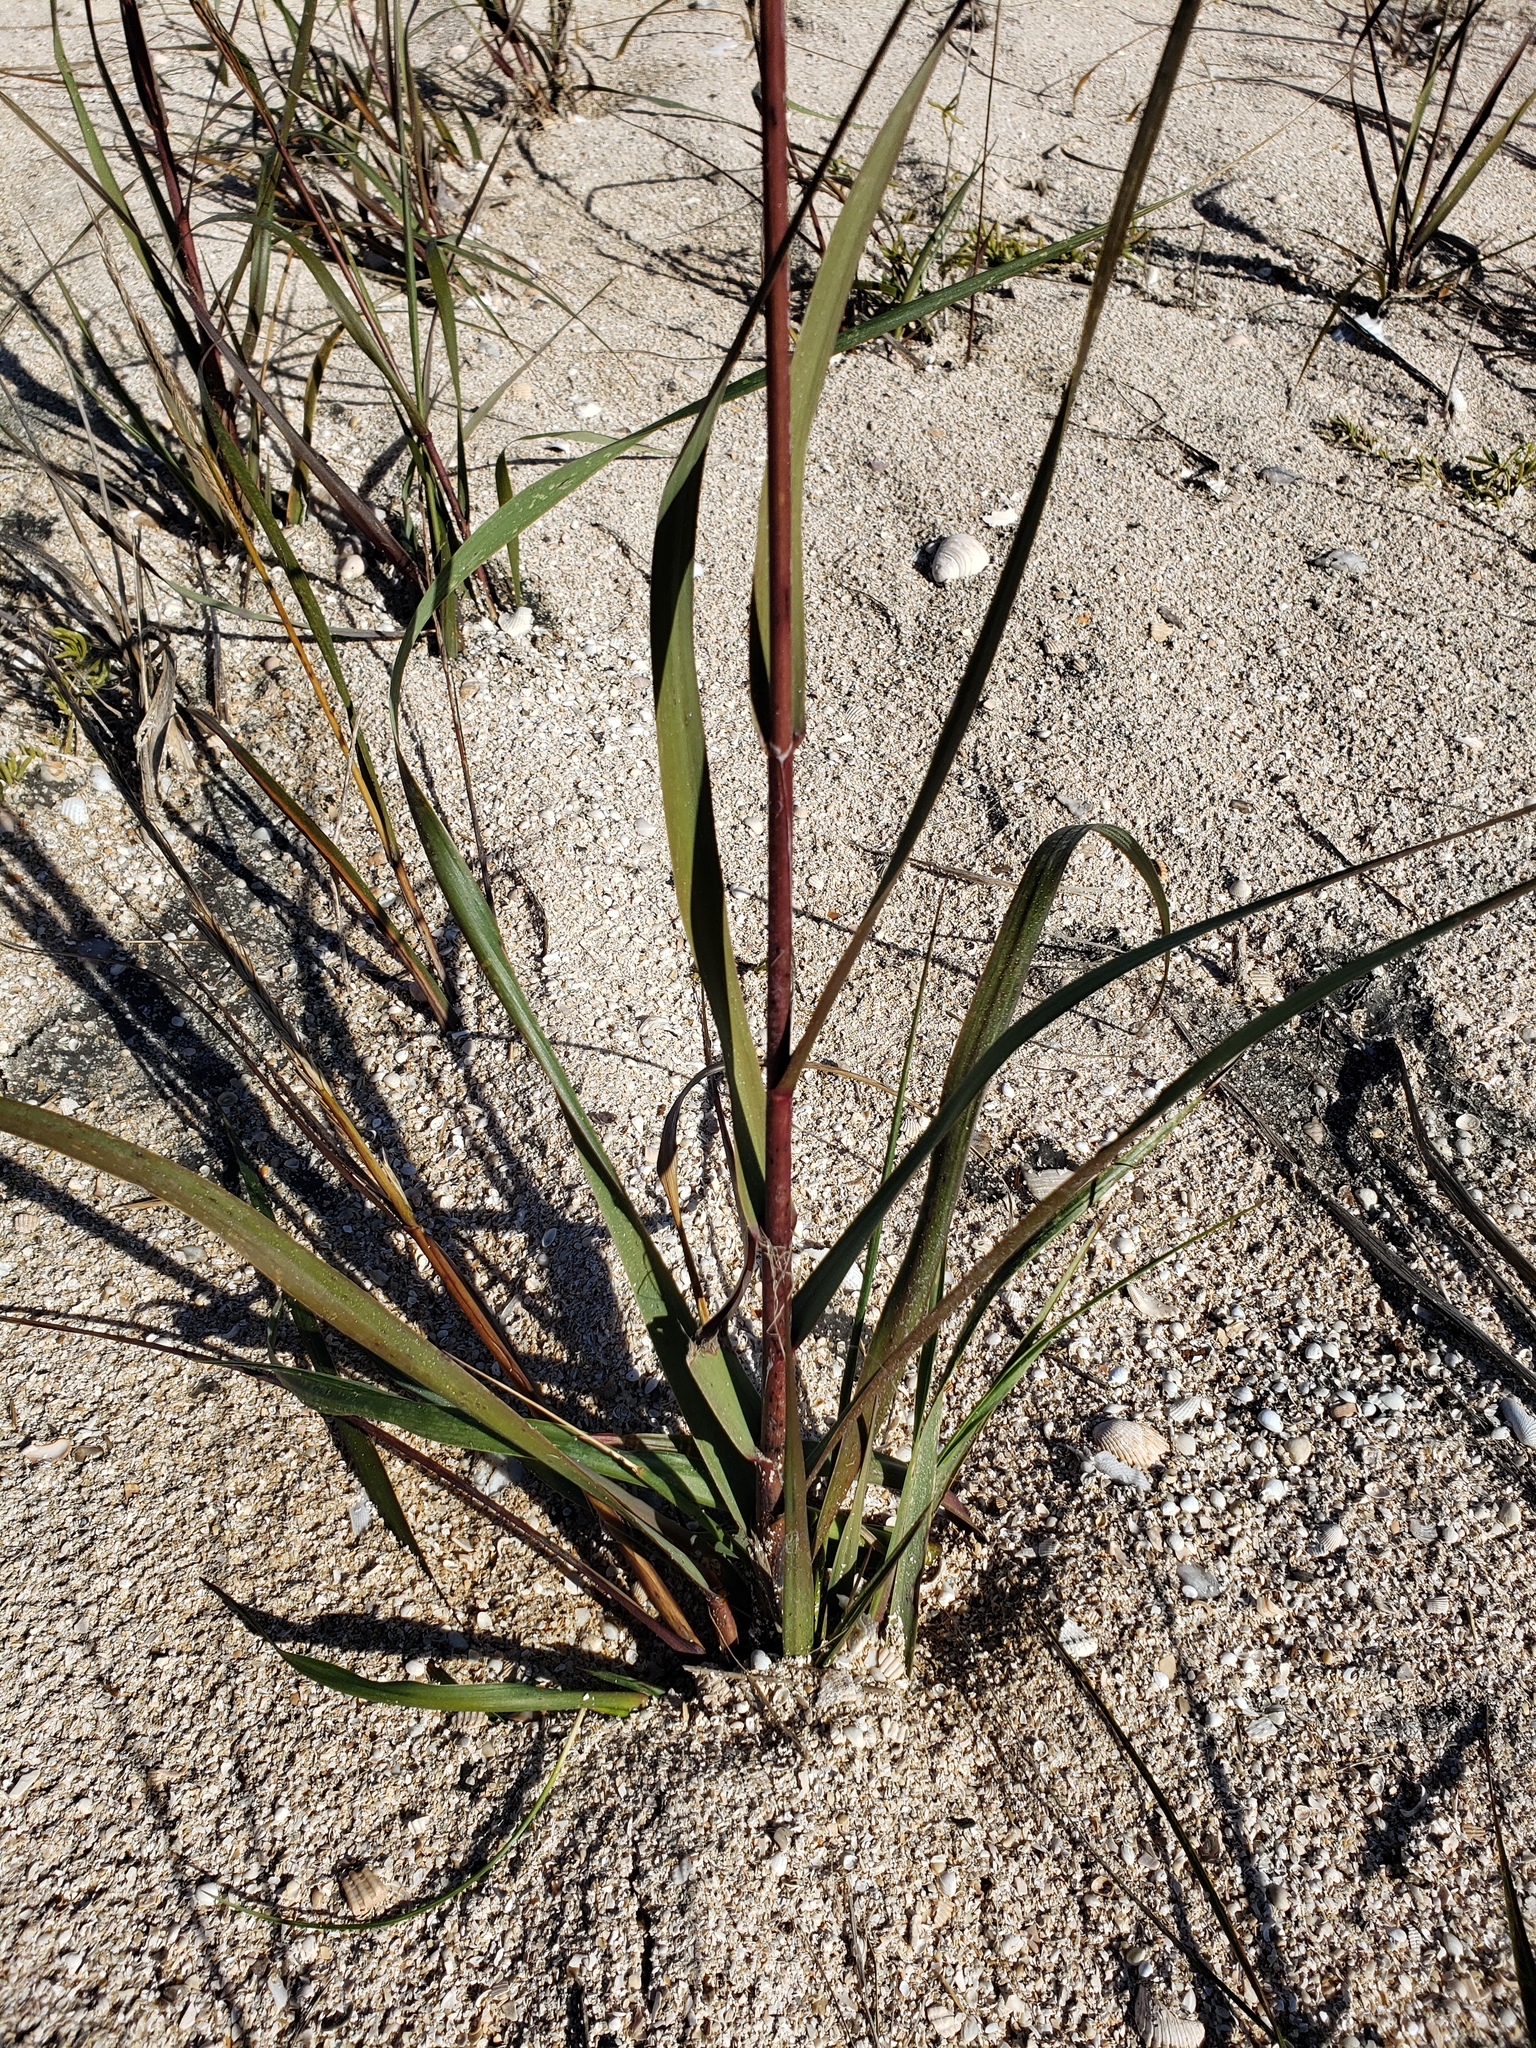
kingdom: Plantae
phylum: Tracheophyta
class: Liliopsida
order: Poales
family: Poaceae
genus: Sporobolus
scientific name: Sporobolus alterniflorus
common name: Atlantic cordgrass
